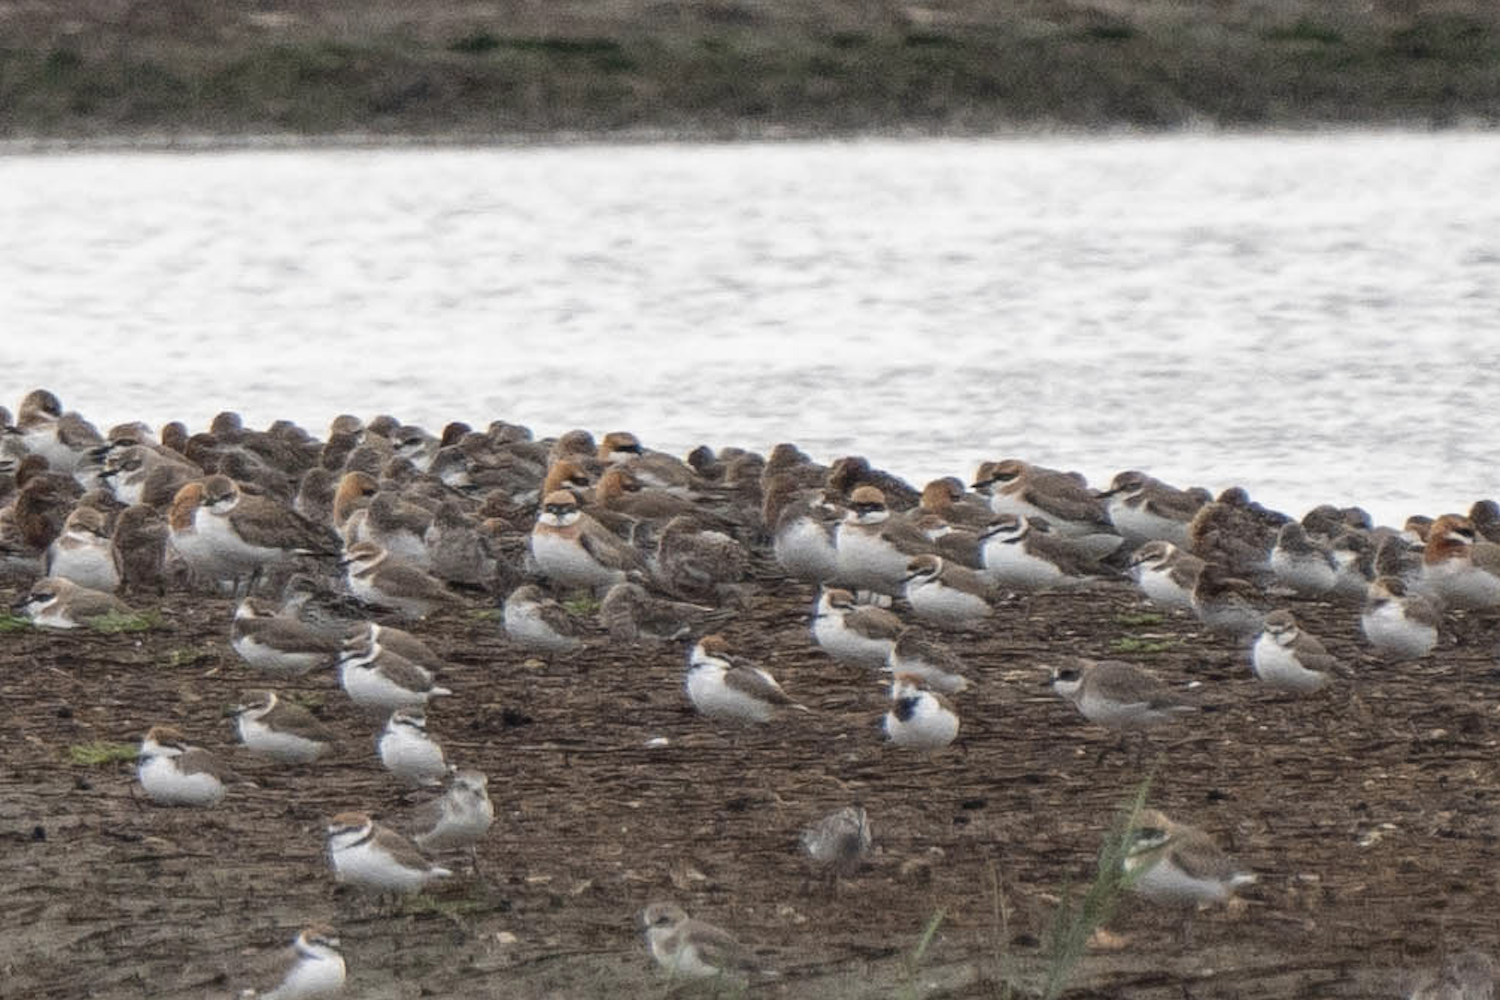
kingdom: Animalia
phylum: Chordata
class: Aves
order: Charadriiformes
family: Charadriidae
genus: Charadrius
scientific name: Charadrius leschenaultii
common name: Greater sand plover
